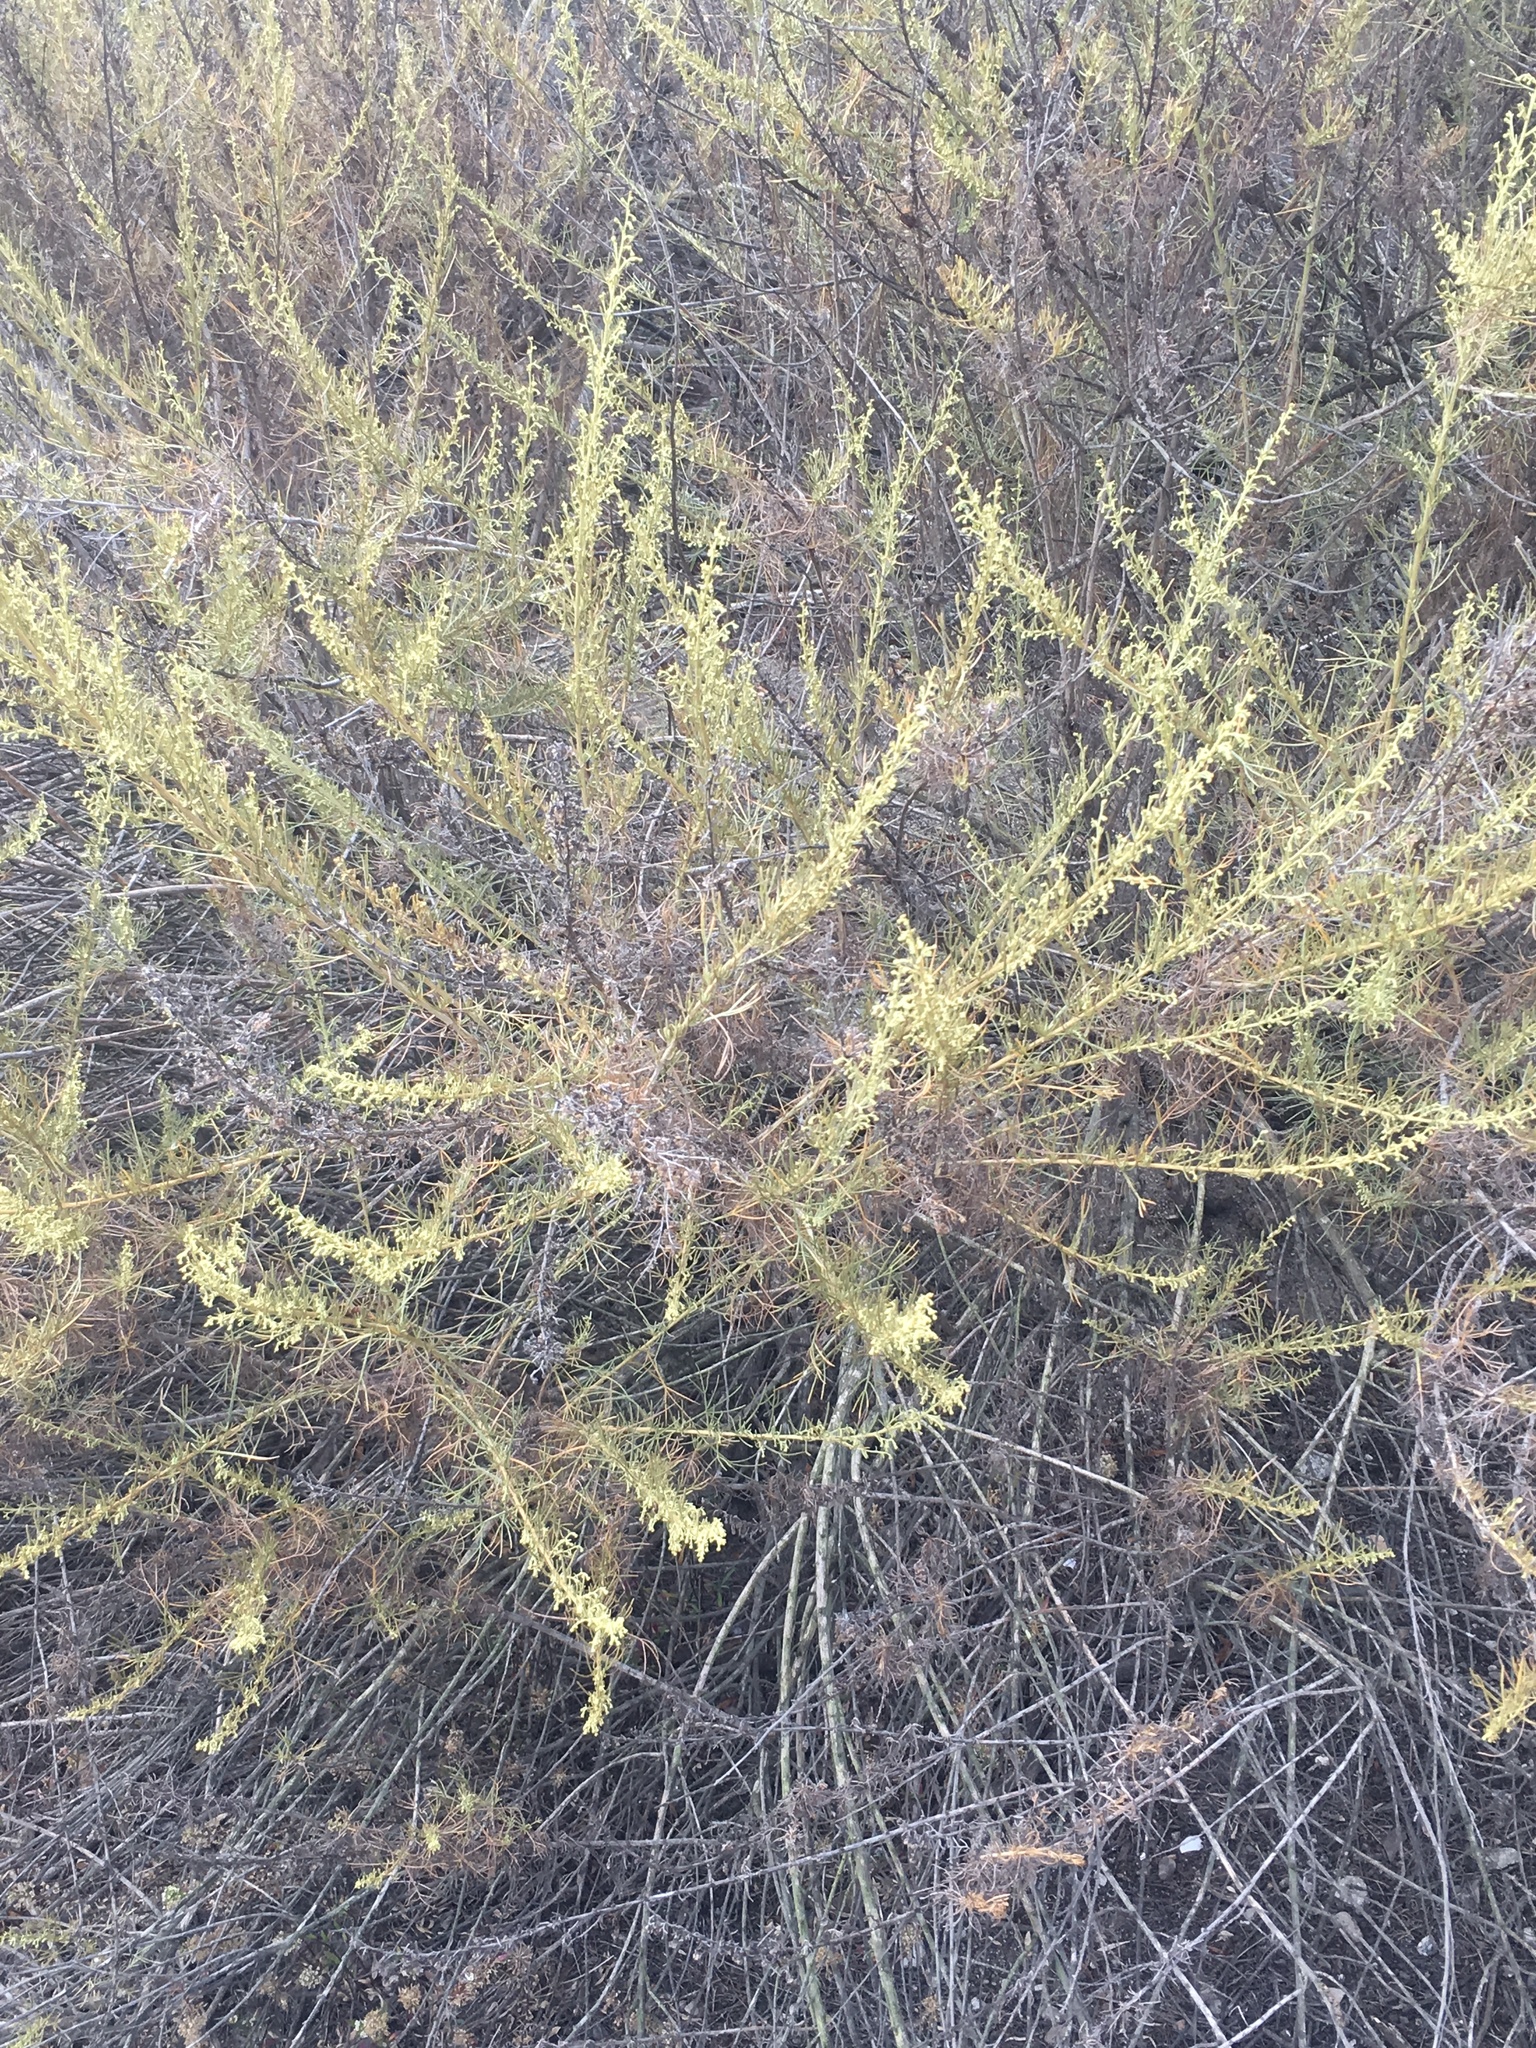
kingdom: Plantae
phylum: Tracheophyta
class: Magnoliopsida
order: Asterales
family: Asteraceae
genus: Artemisia
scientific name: Artemisia californica
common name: California sagebrush
